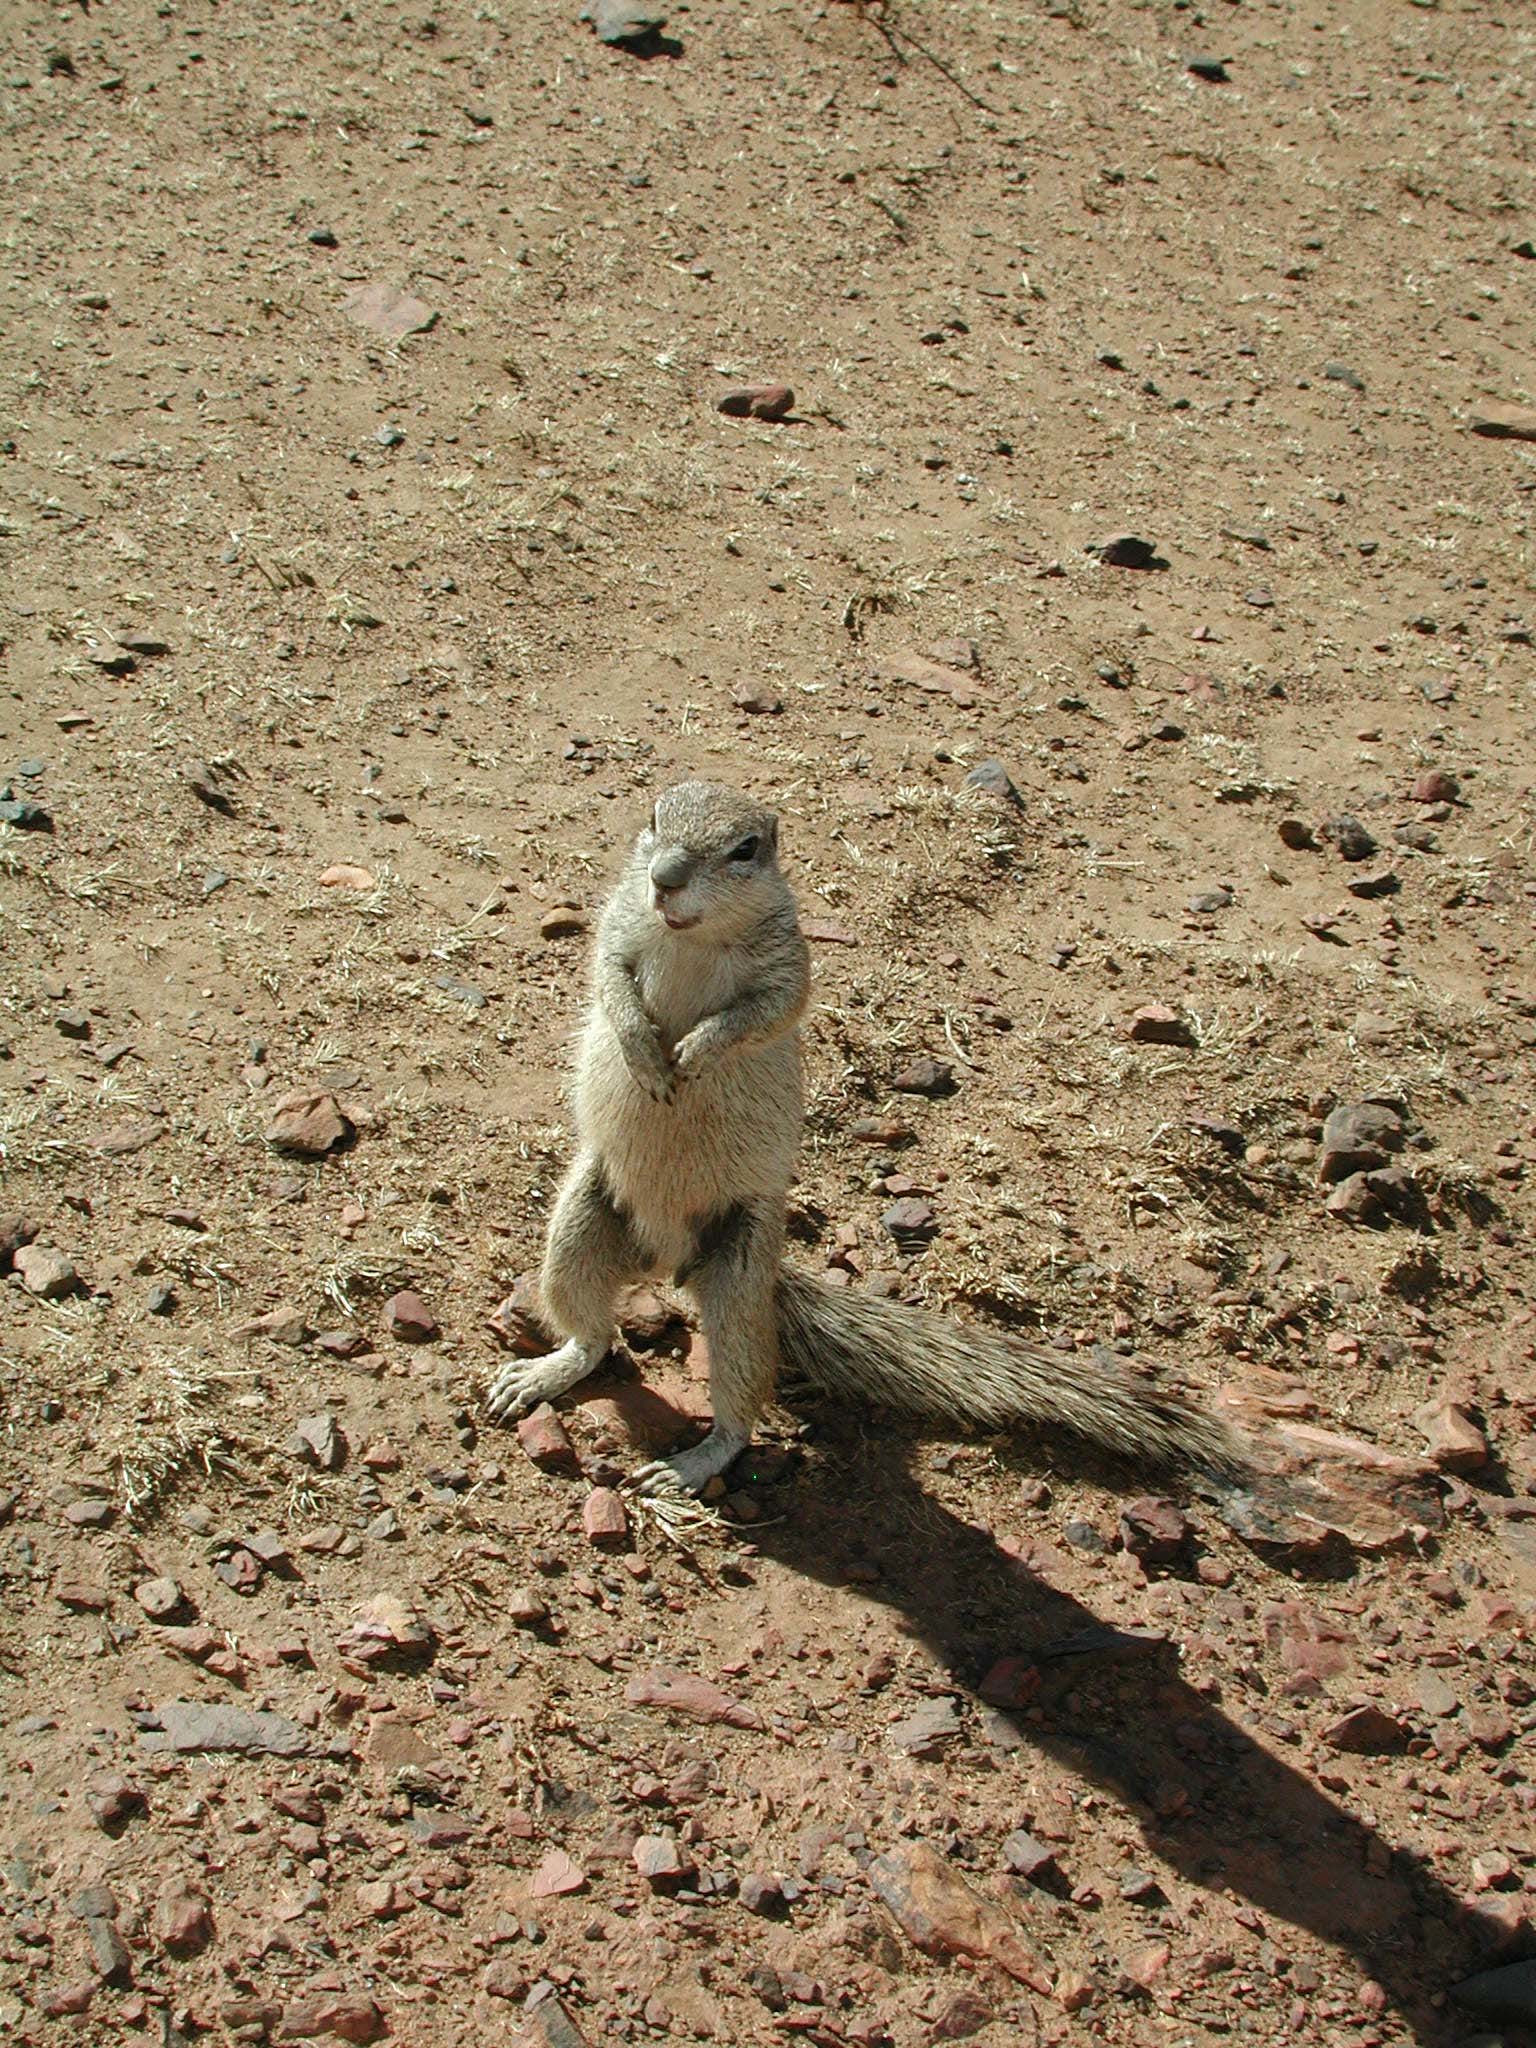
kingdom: Animalia
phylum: Chordata
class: Mammalia
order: Rodentia
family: Sciuridae
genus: Xerus
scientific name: Xerus inauris
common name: South african ground squirrel
